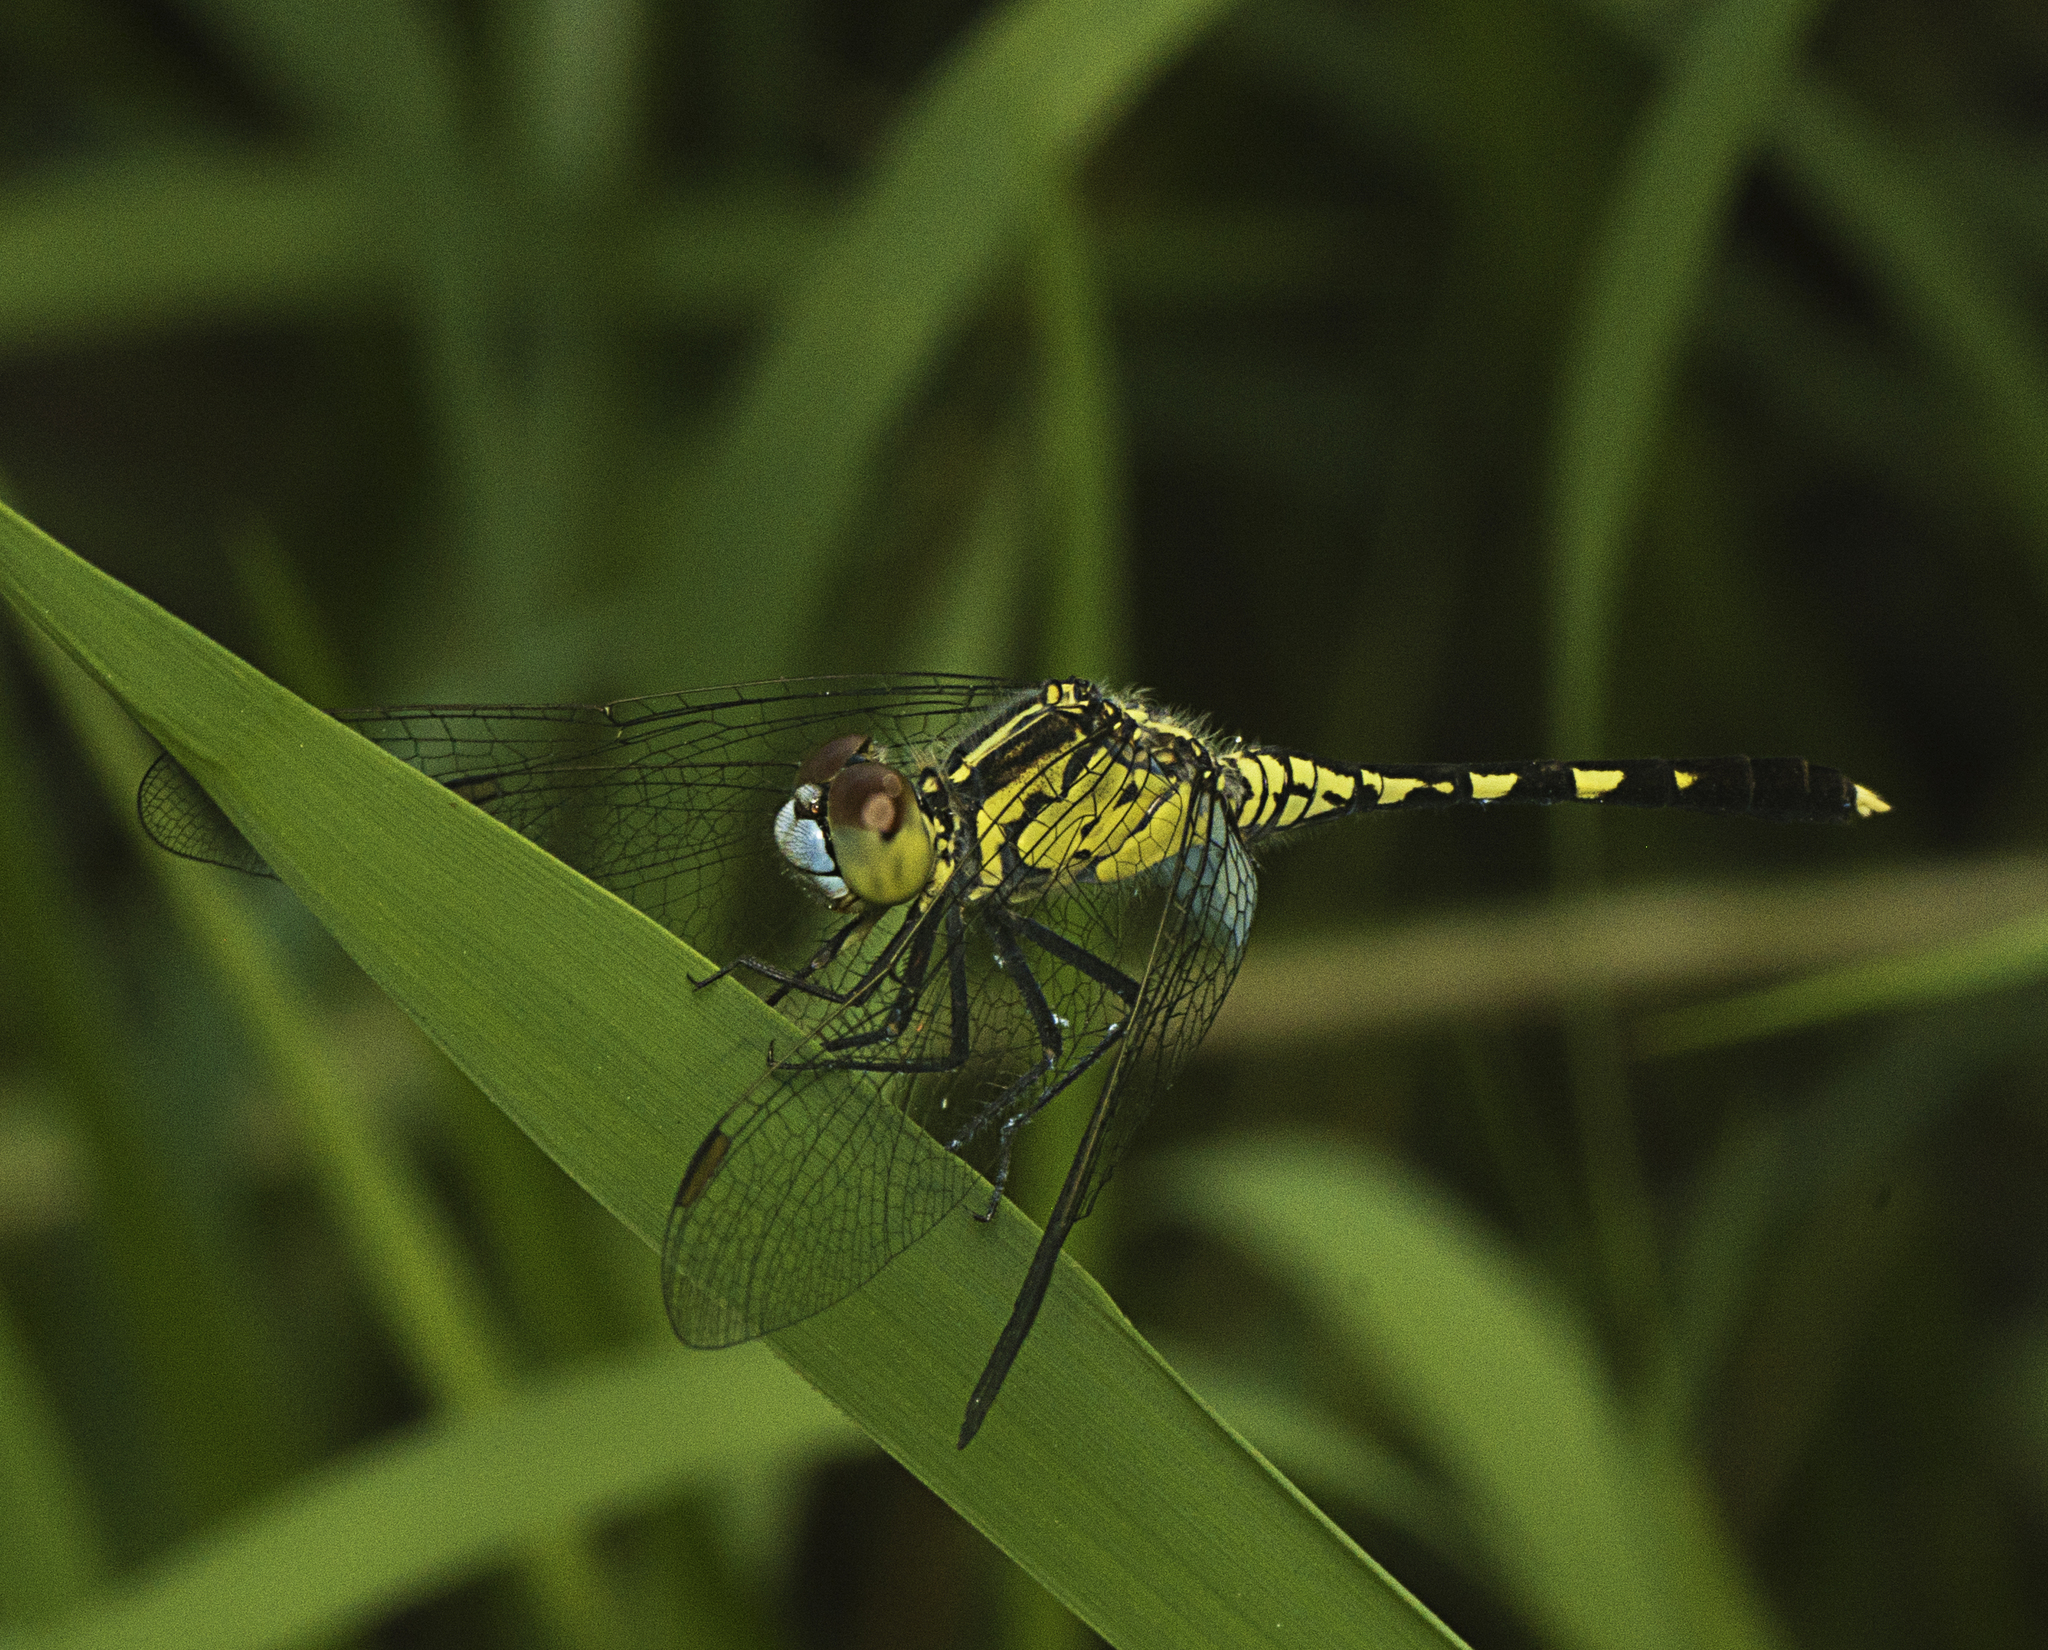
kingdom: Animalia
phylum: Arthropoda
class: Insecta
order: Odonata
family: Libellulidae
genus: Diplacodes
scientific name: Diplacodes trivialis
